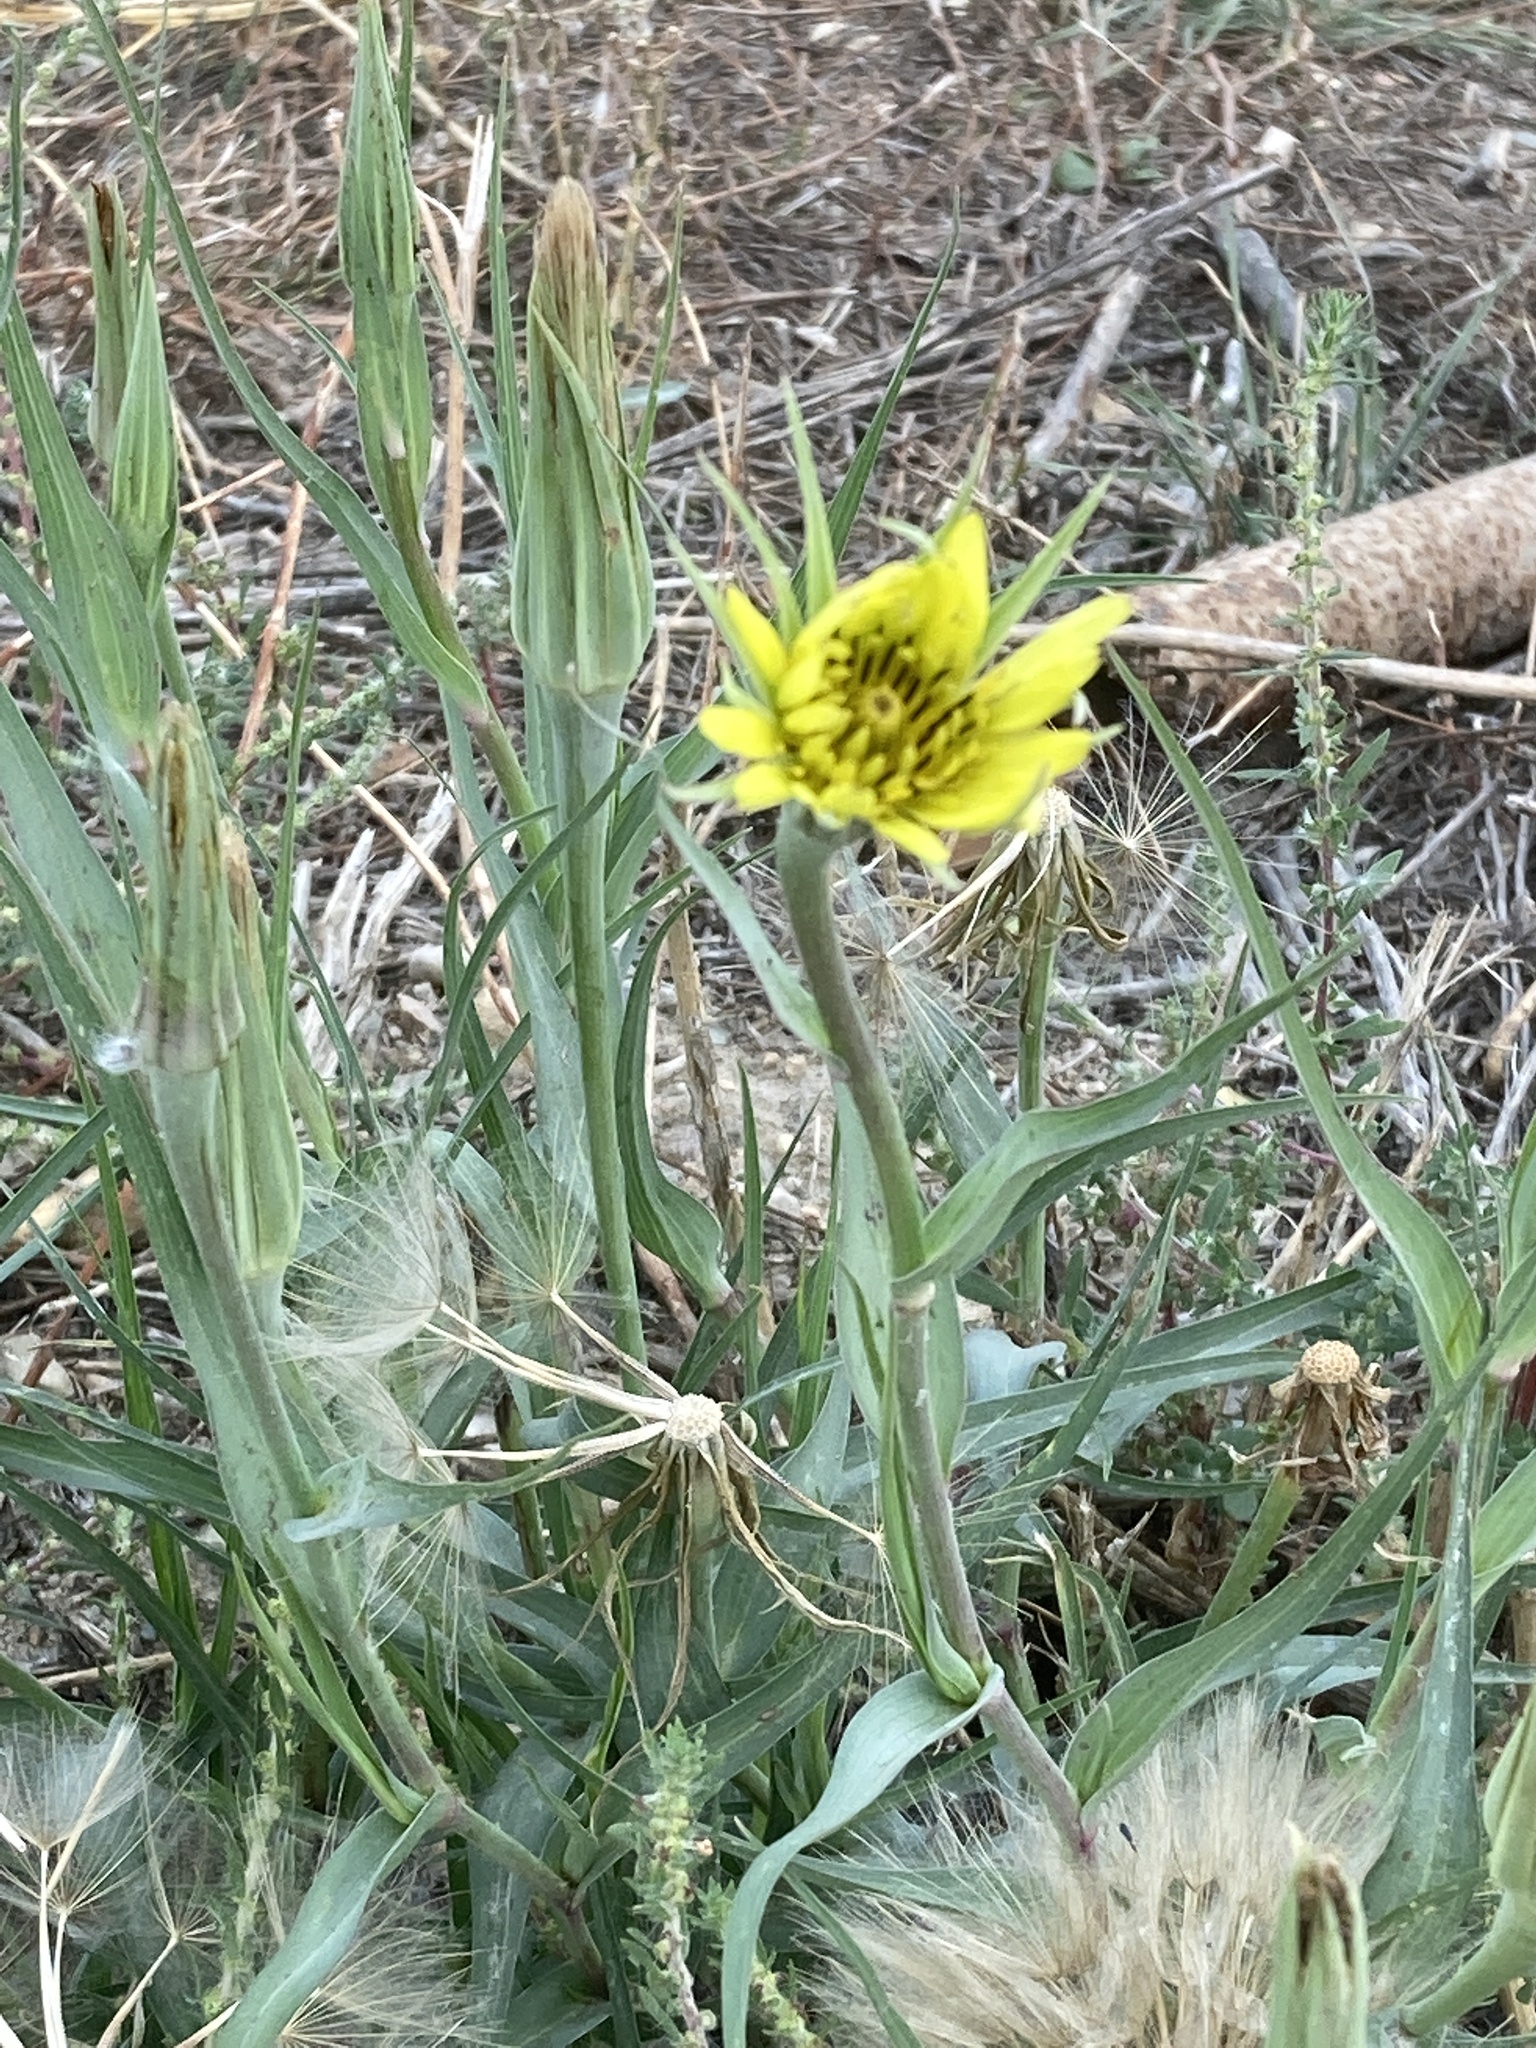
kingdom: Plantae
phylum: Tracheophyta
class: Magnoliopsida
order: Asterales
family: Asteraceae
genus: Tragopogon
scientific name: Tragopogon dubius
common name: Yellow salsify
